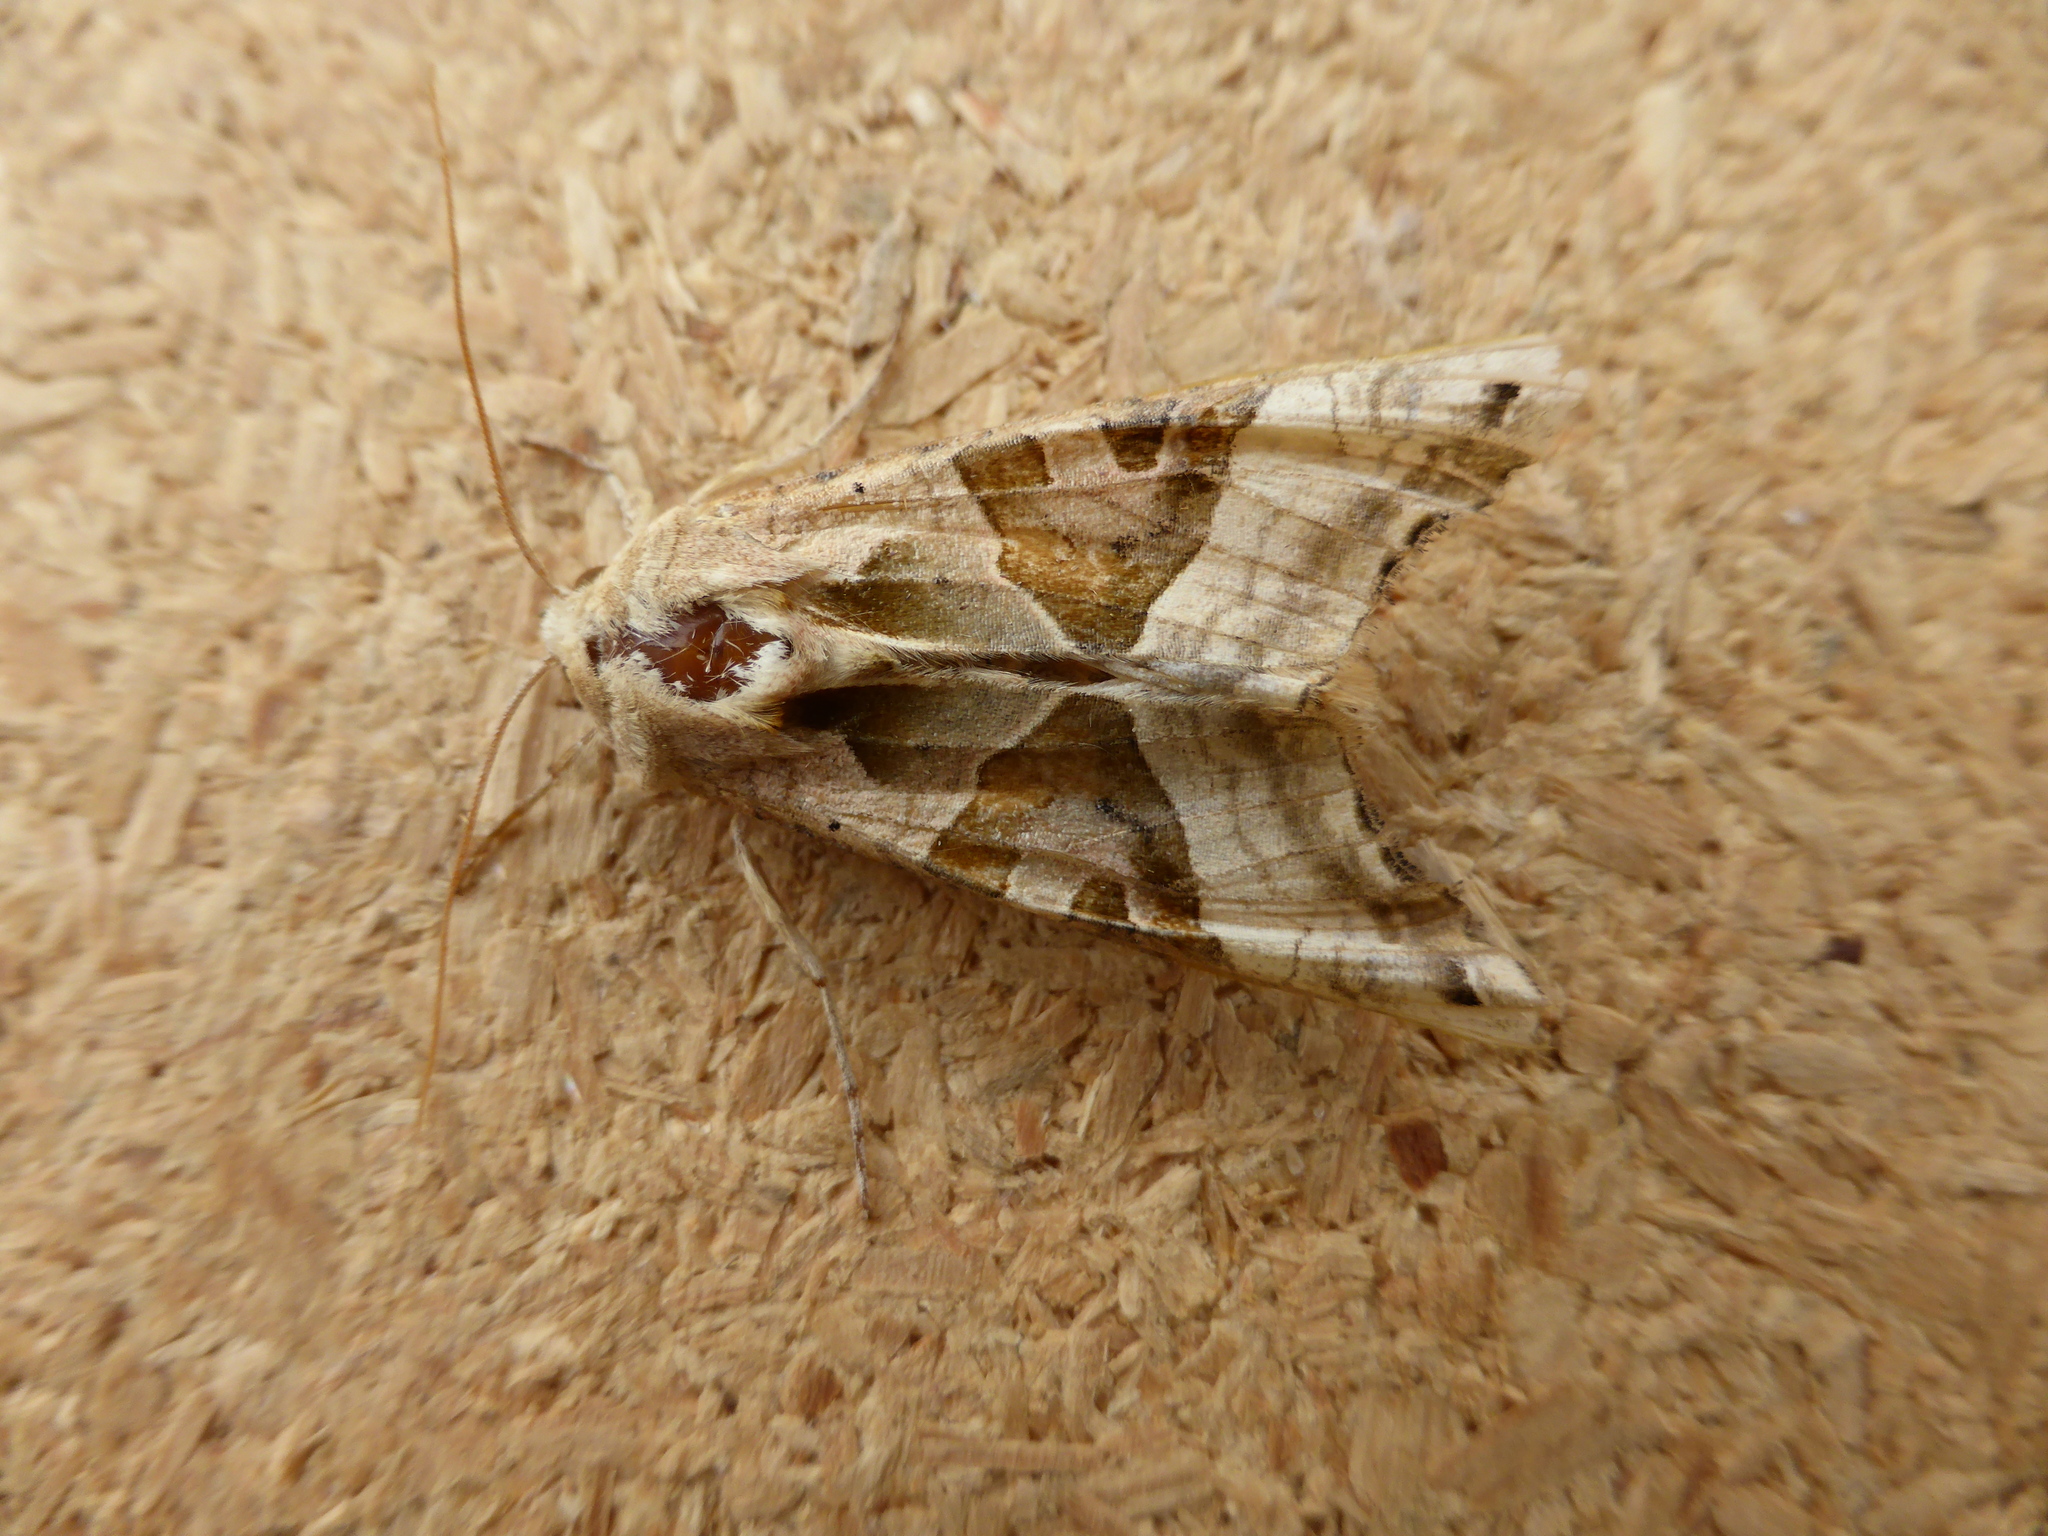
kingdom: Animalia
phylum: Arthropoda
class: Insecta
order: Lepidoptera
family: Noctuidae
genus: Phlogophora
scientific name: Phlogophora meticulosa
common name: Angle shades
